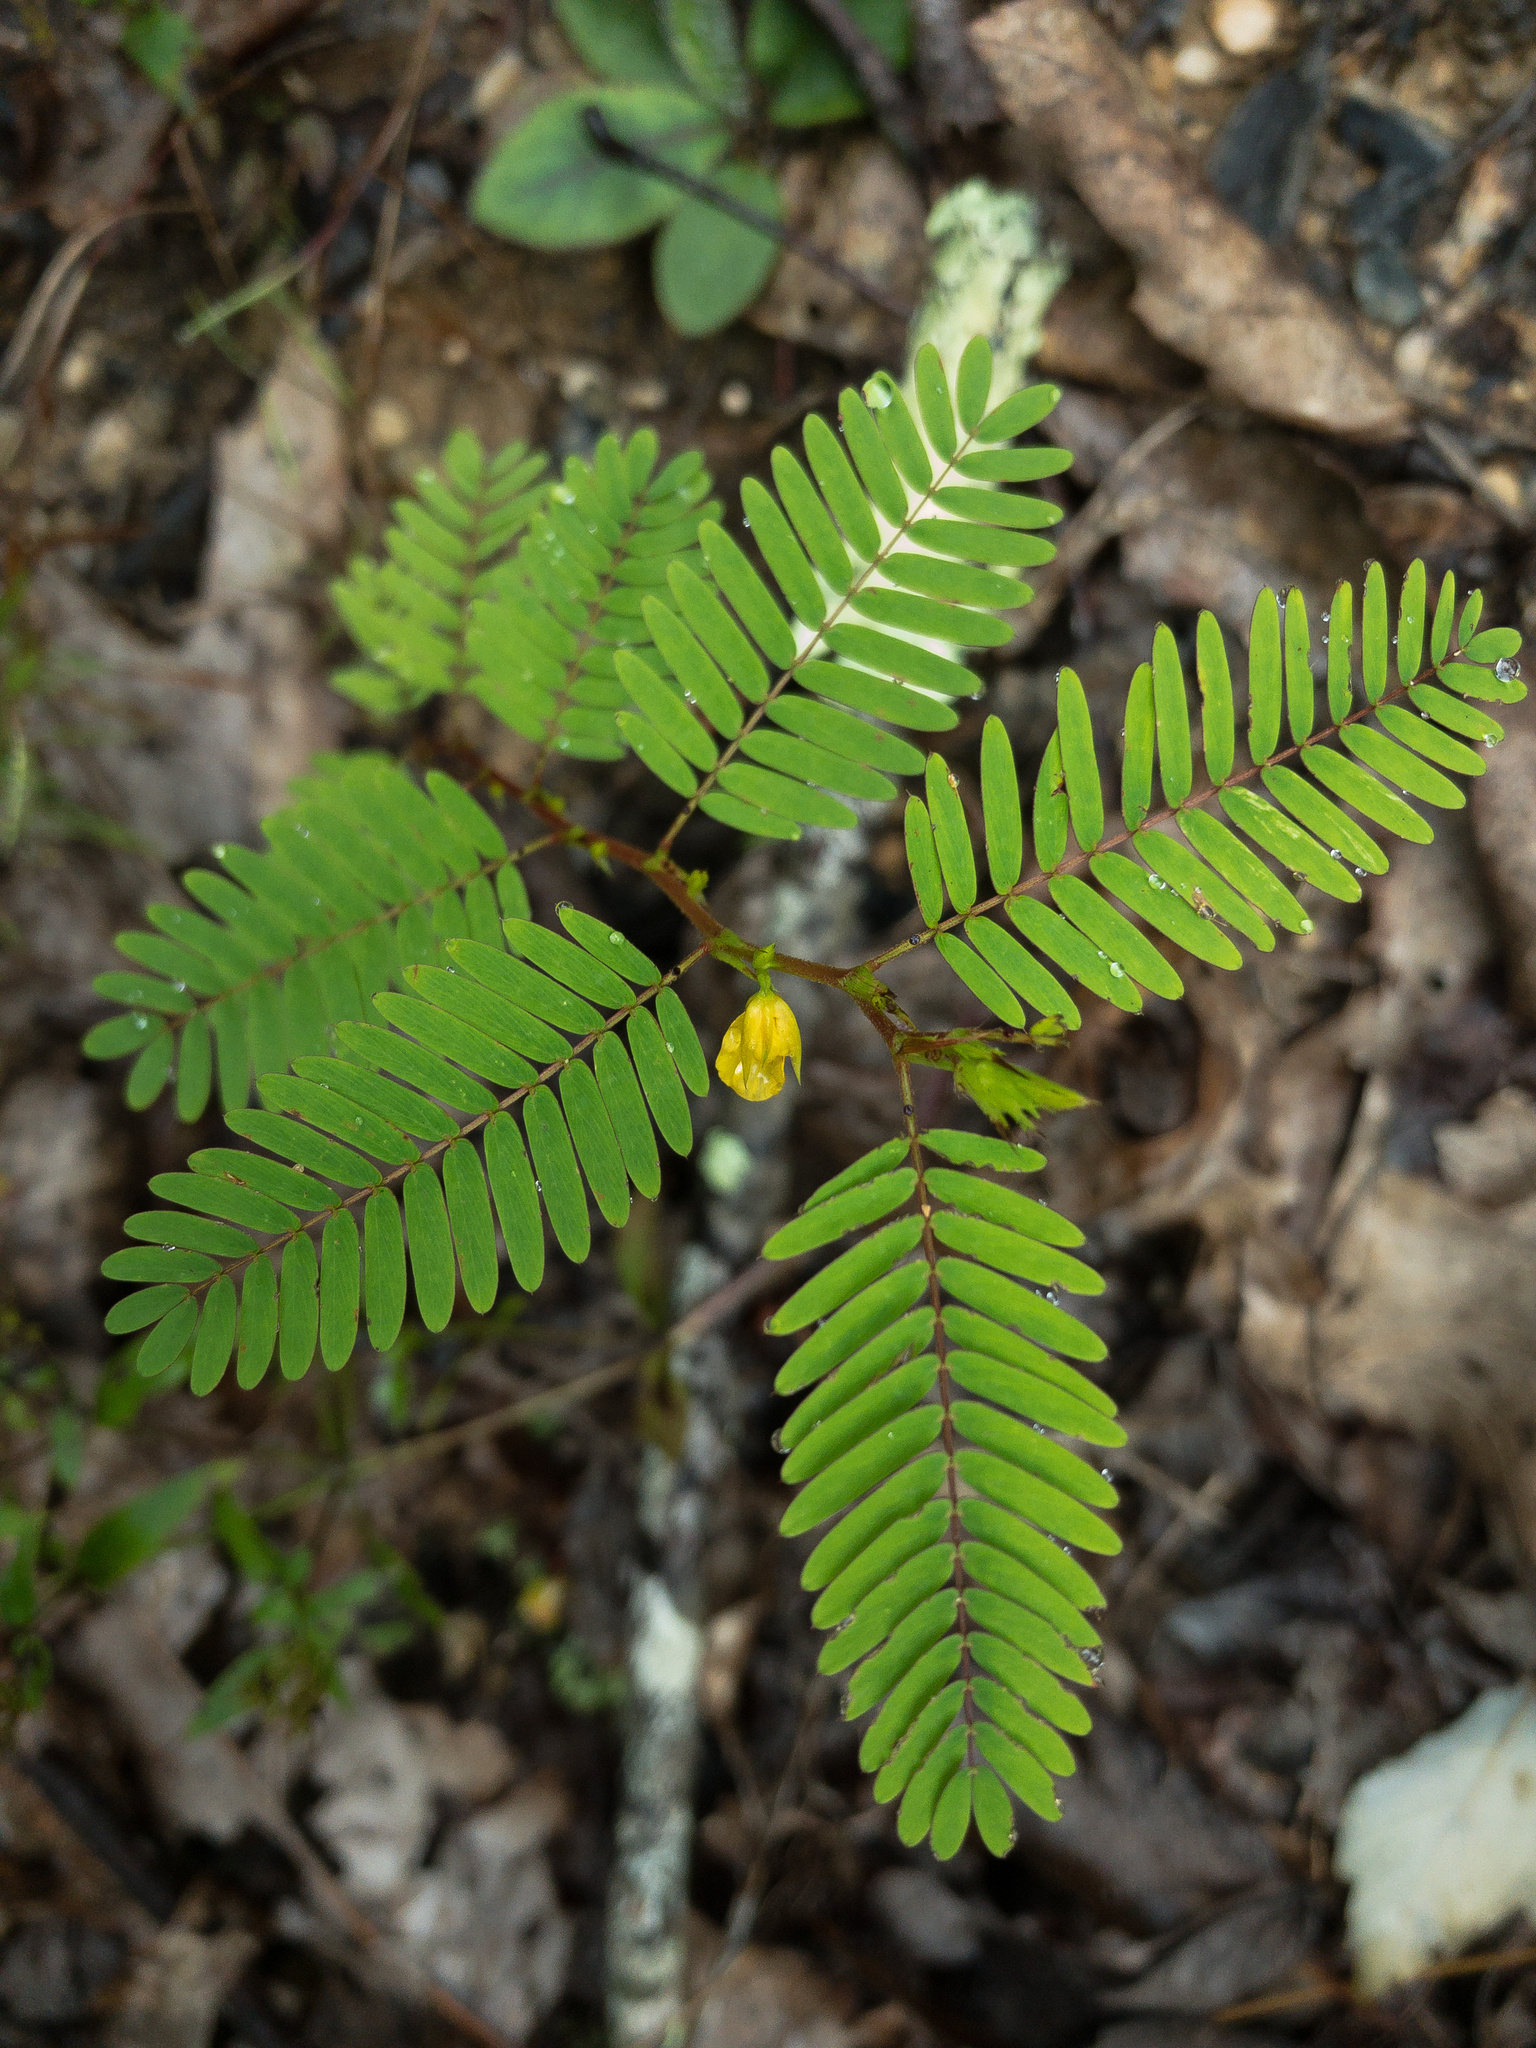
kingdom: Plantae
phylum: Tracheophyta
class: Magnoliopsida
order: Fabales
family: Fabaceae
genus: Chamaecrista
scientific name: Chamaecrista nictitans
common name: Sensitive cassia
